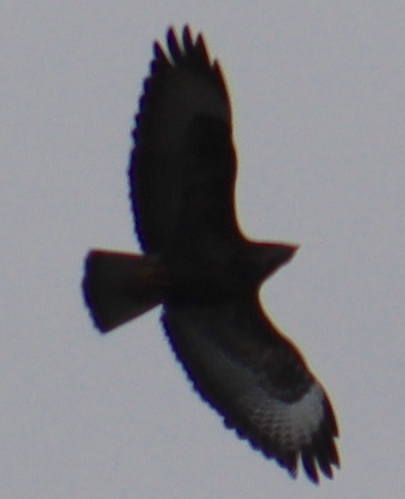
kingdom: Animalia
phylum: Chordata
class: Aves
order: Accipitriformes
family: Accipitridae
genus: Buteo
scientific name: Buteo buteo
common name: Common buzzard
